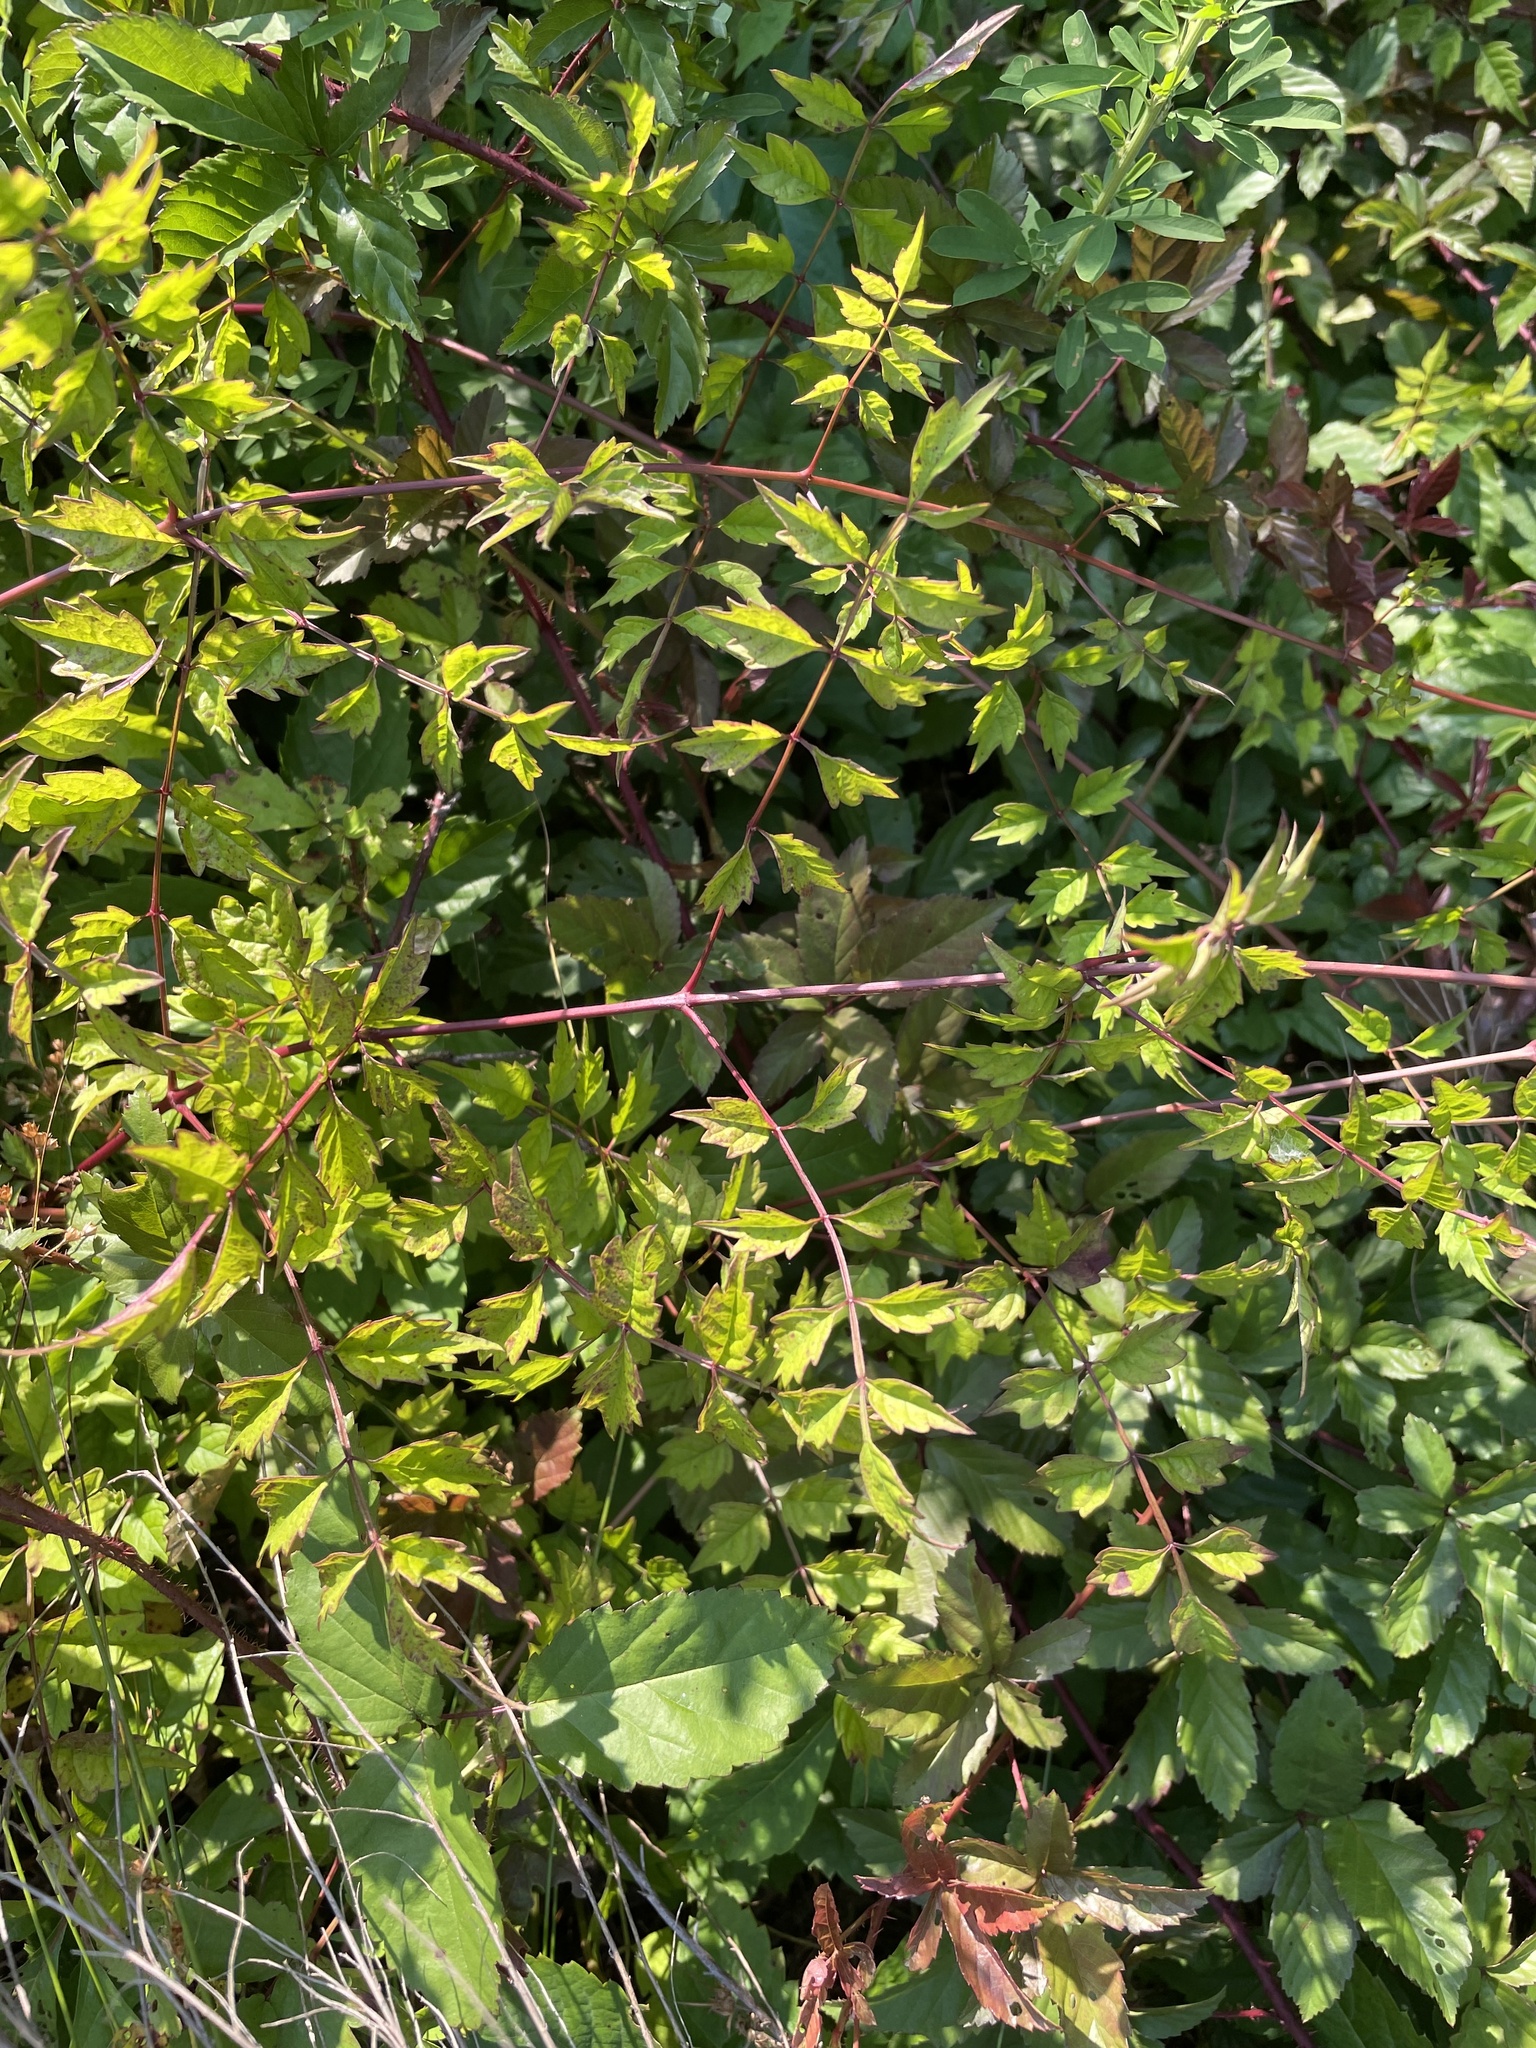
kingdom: Plantae
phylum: Tracheophyta
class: Magnoliopsida
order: Lamiales
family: Bignoniaceae
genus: Campsis
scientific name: Campsis radicans
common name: Trumpet-creeper
